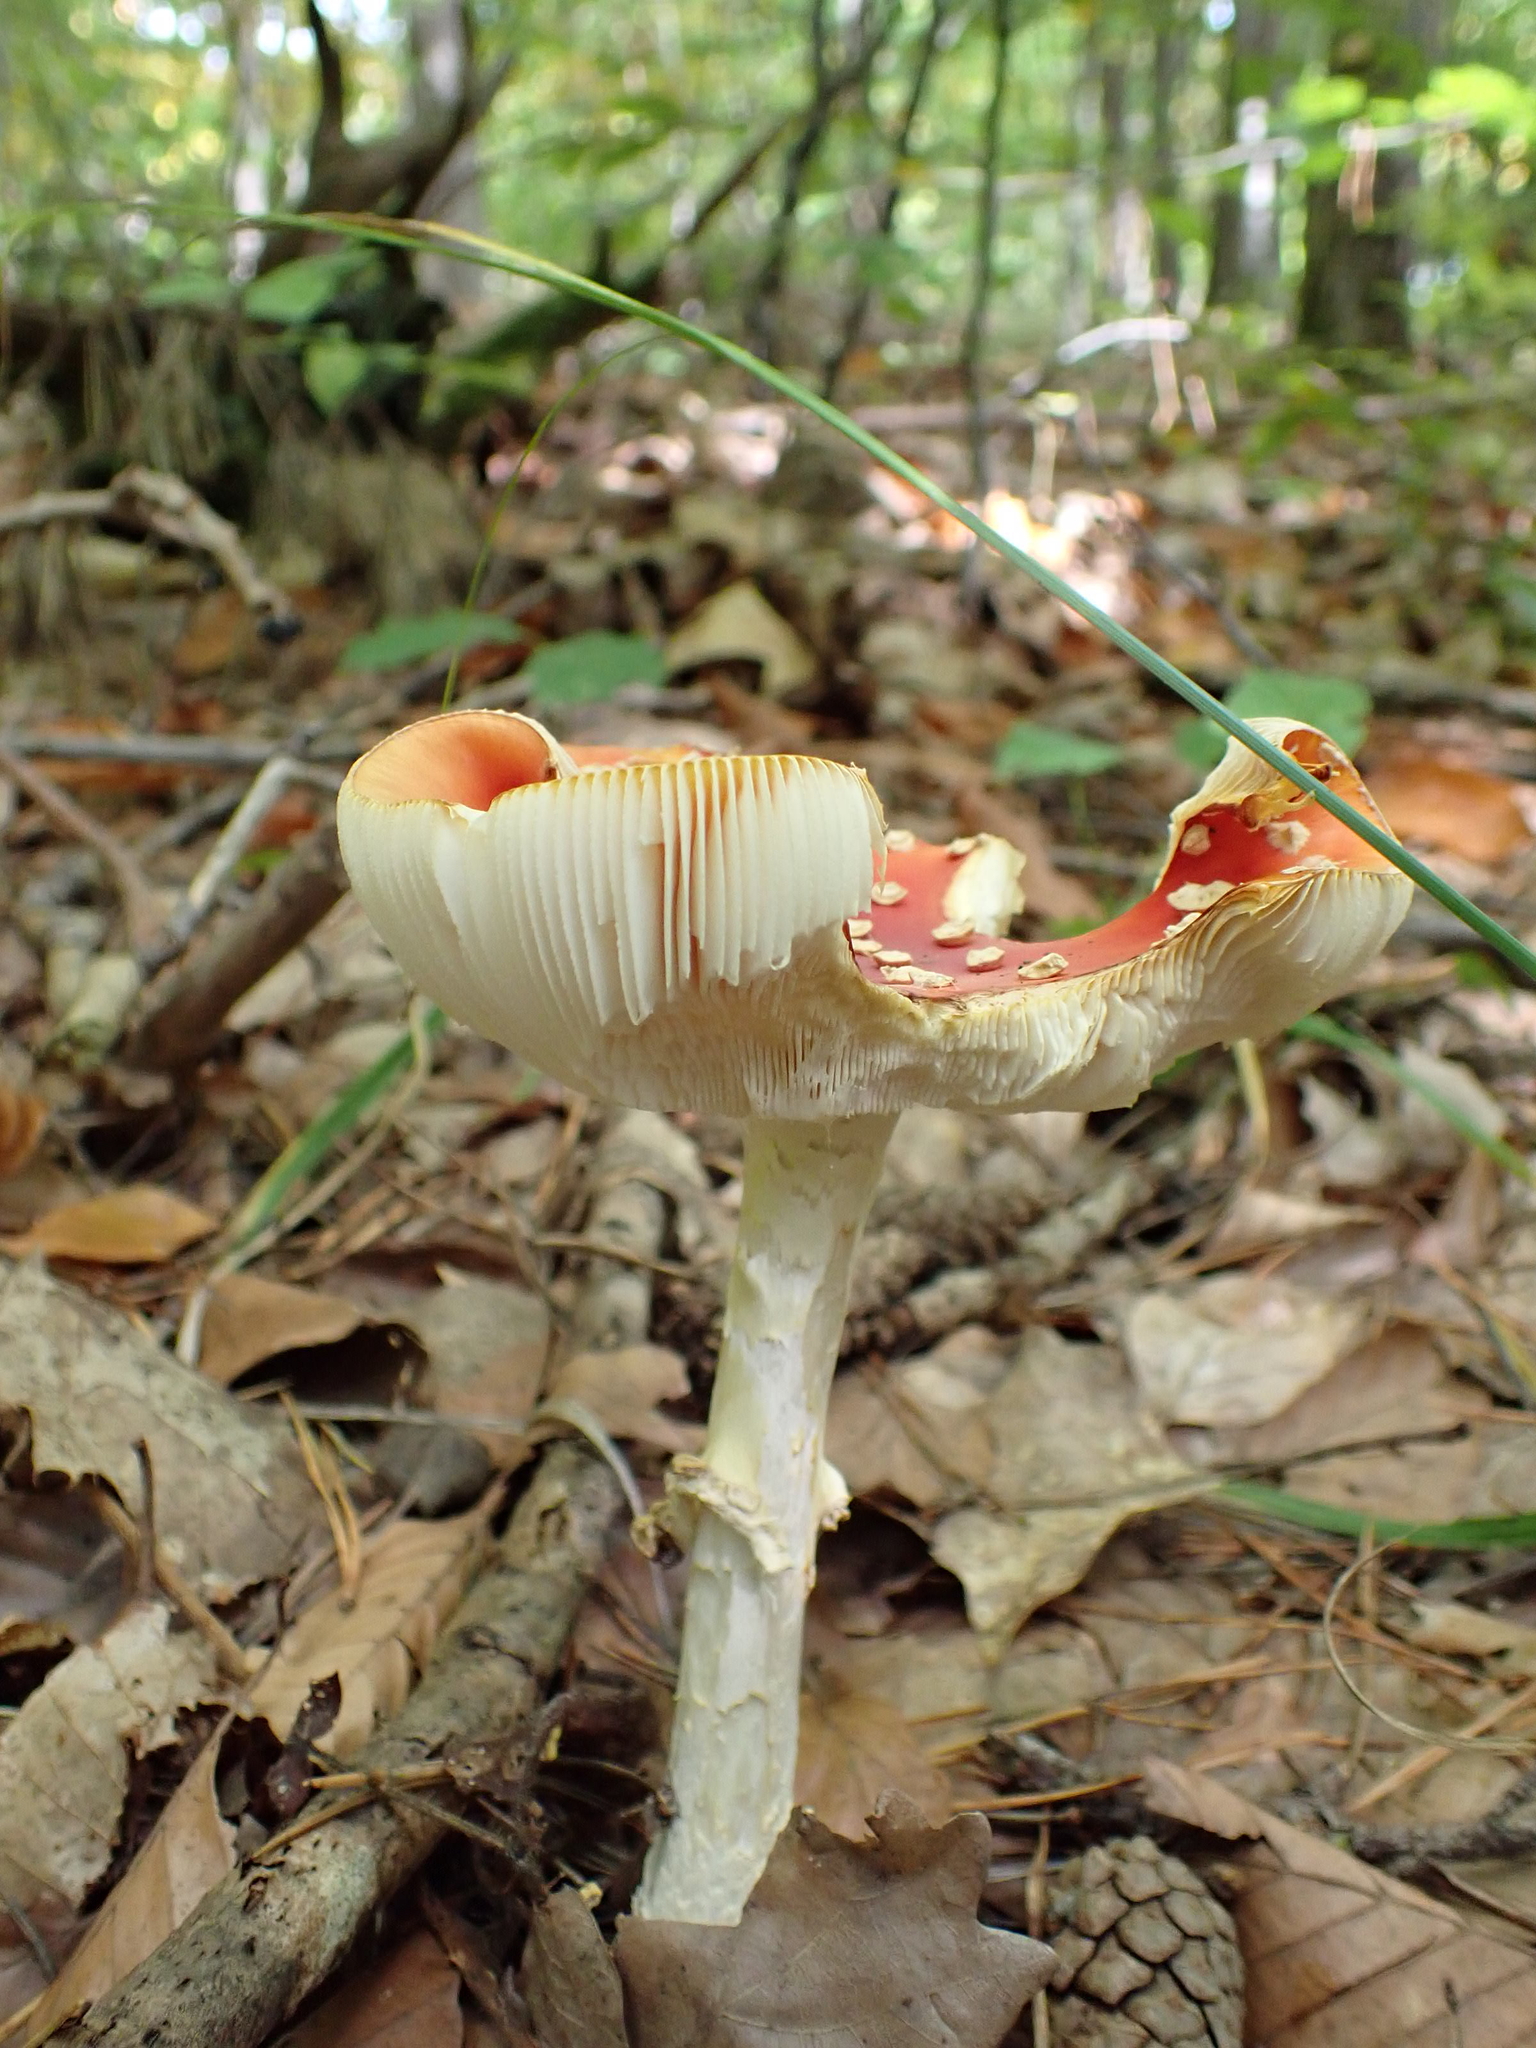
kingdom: Fungi
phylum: Basidiomycota
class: Agaricomycetes
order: Agaricales
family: Amanitaceae
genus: Amanita
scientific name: Amanita muscaria
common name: Fly agaric
